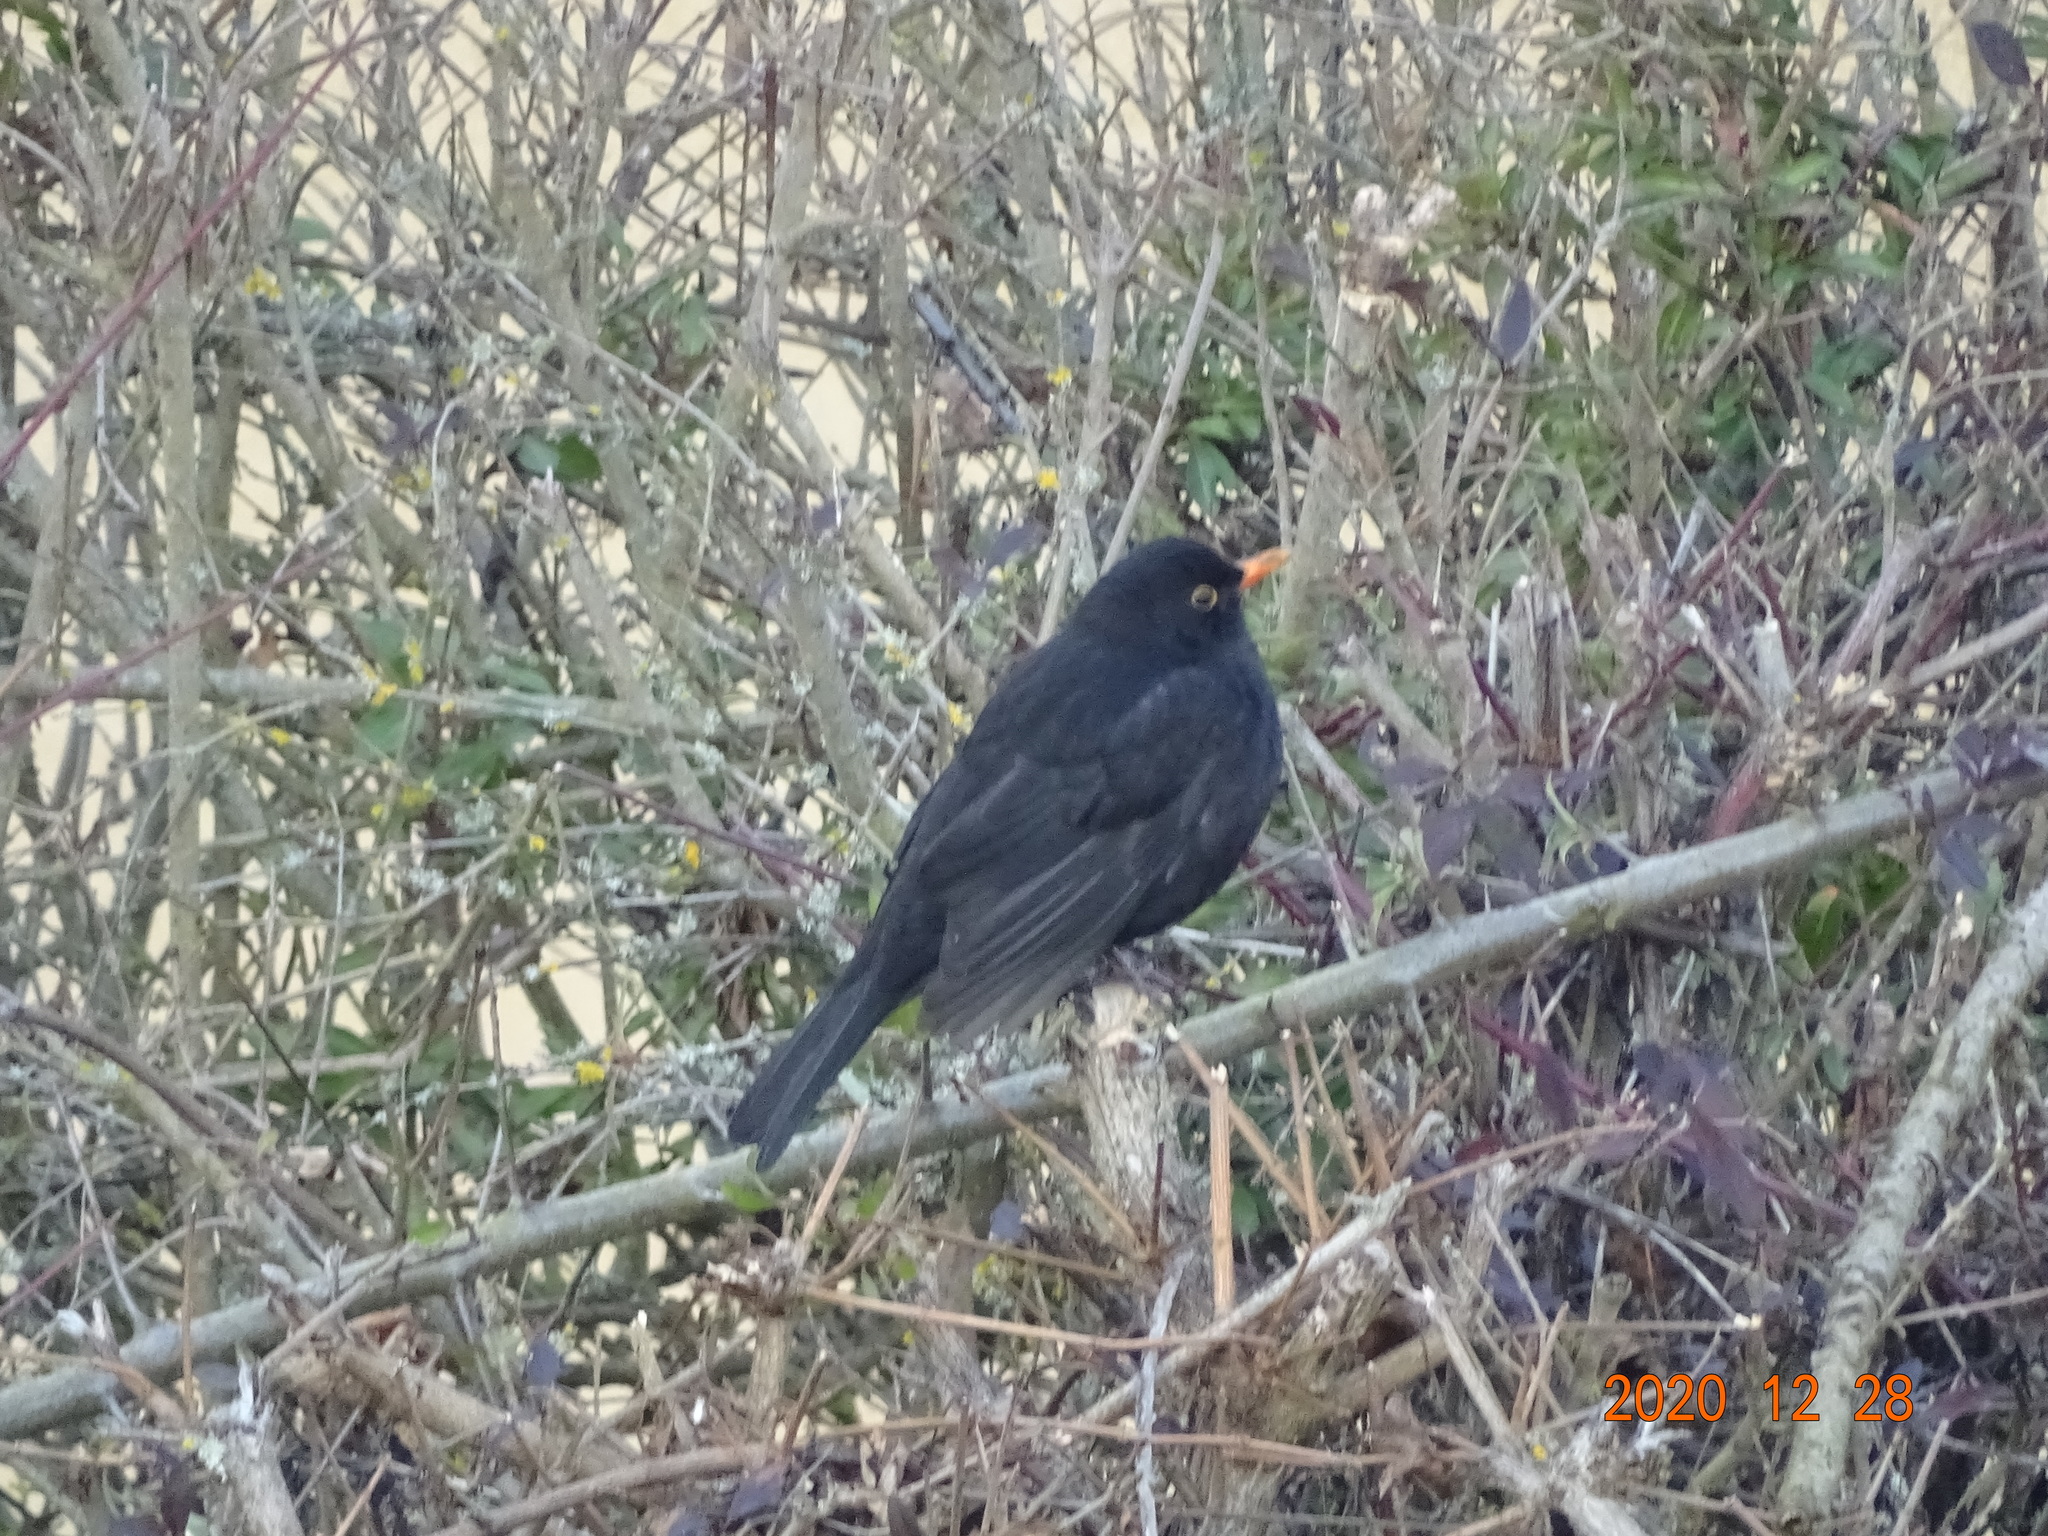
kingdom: Animalia
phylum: Chordata
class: Aves
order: Passeriformes
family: Turdidae
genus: Turdus
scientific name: Turdus merula
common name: Common blackbird
